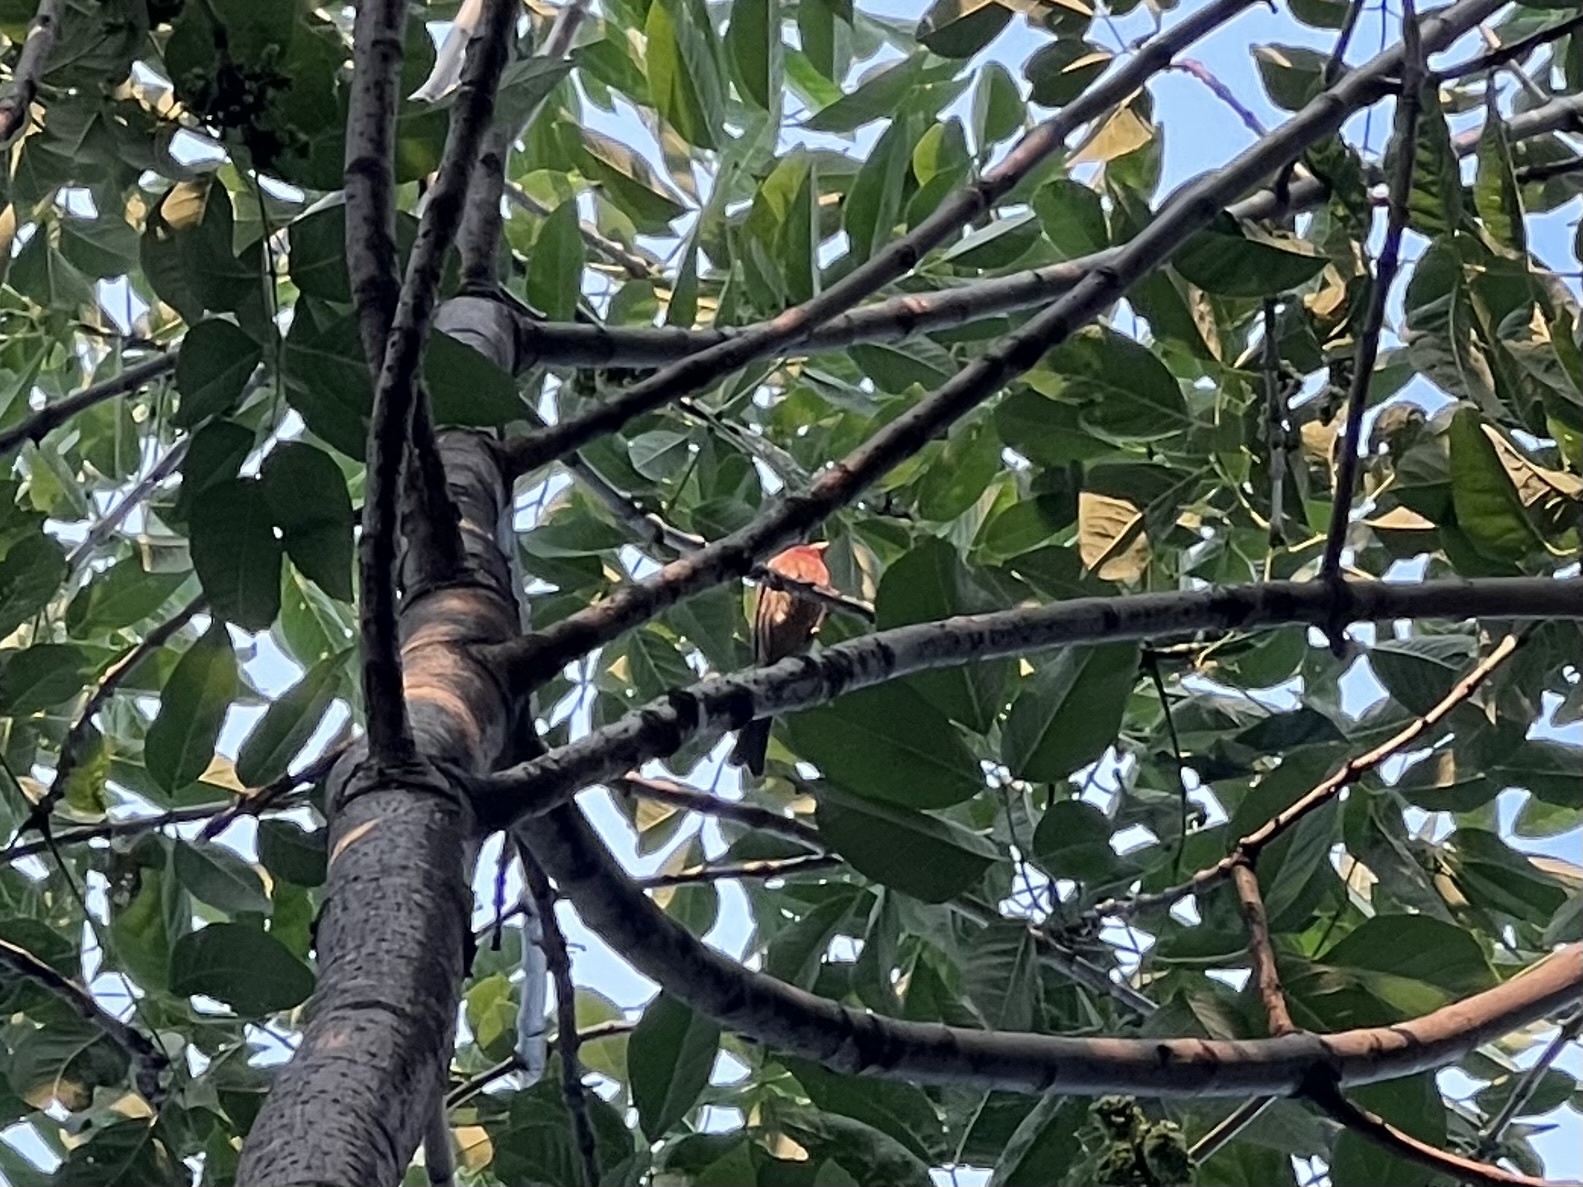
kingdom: Animalia
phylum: Chordata
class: Aves
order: Passeriformes
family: Fringillidae
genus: Haemorhous
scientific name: Haemorhous mexicanus
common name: House finch
